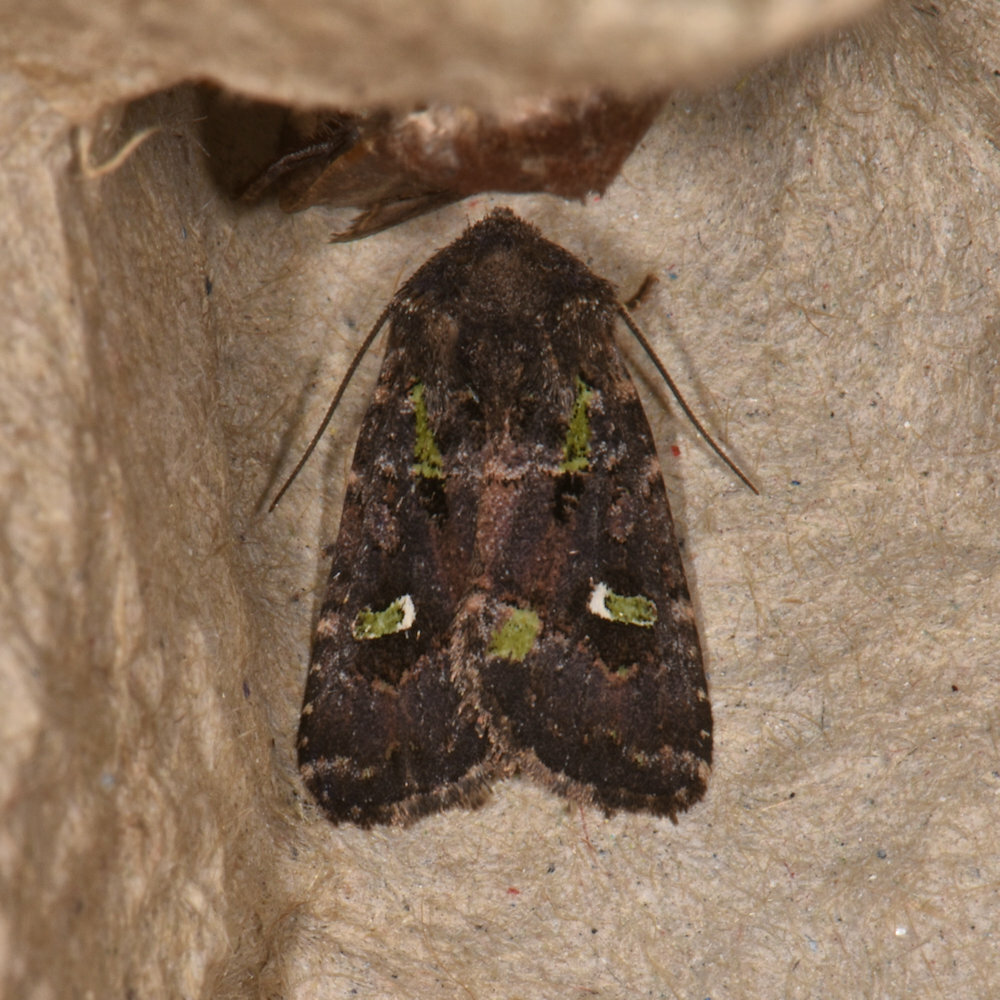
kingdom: Animalia
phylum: Arthropoda
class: Insecta
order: Lepidoptera
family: Noctuidae
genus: Lacinipolia
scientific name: Lacinipolia renigera
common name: Kidney-spotted minor
